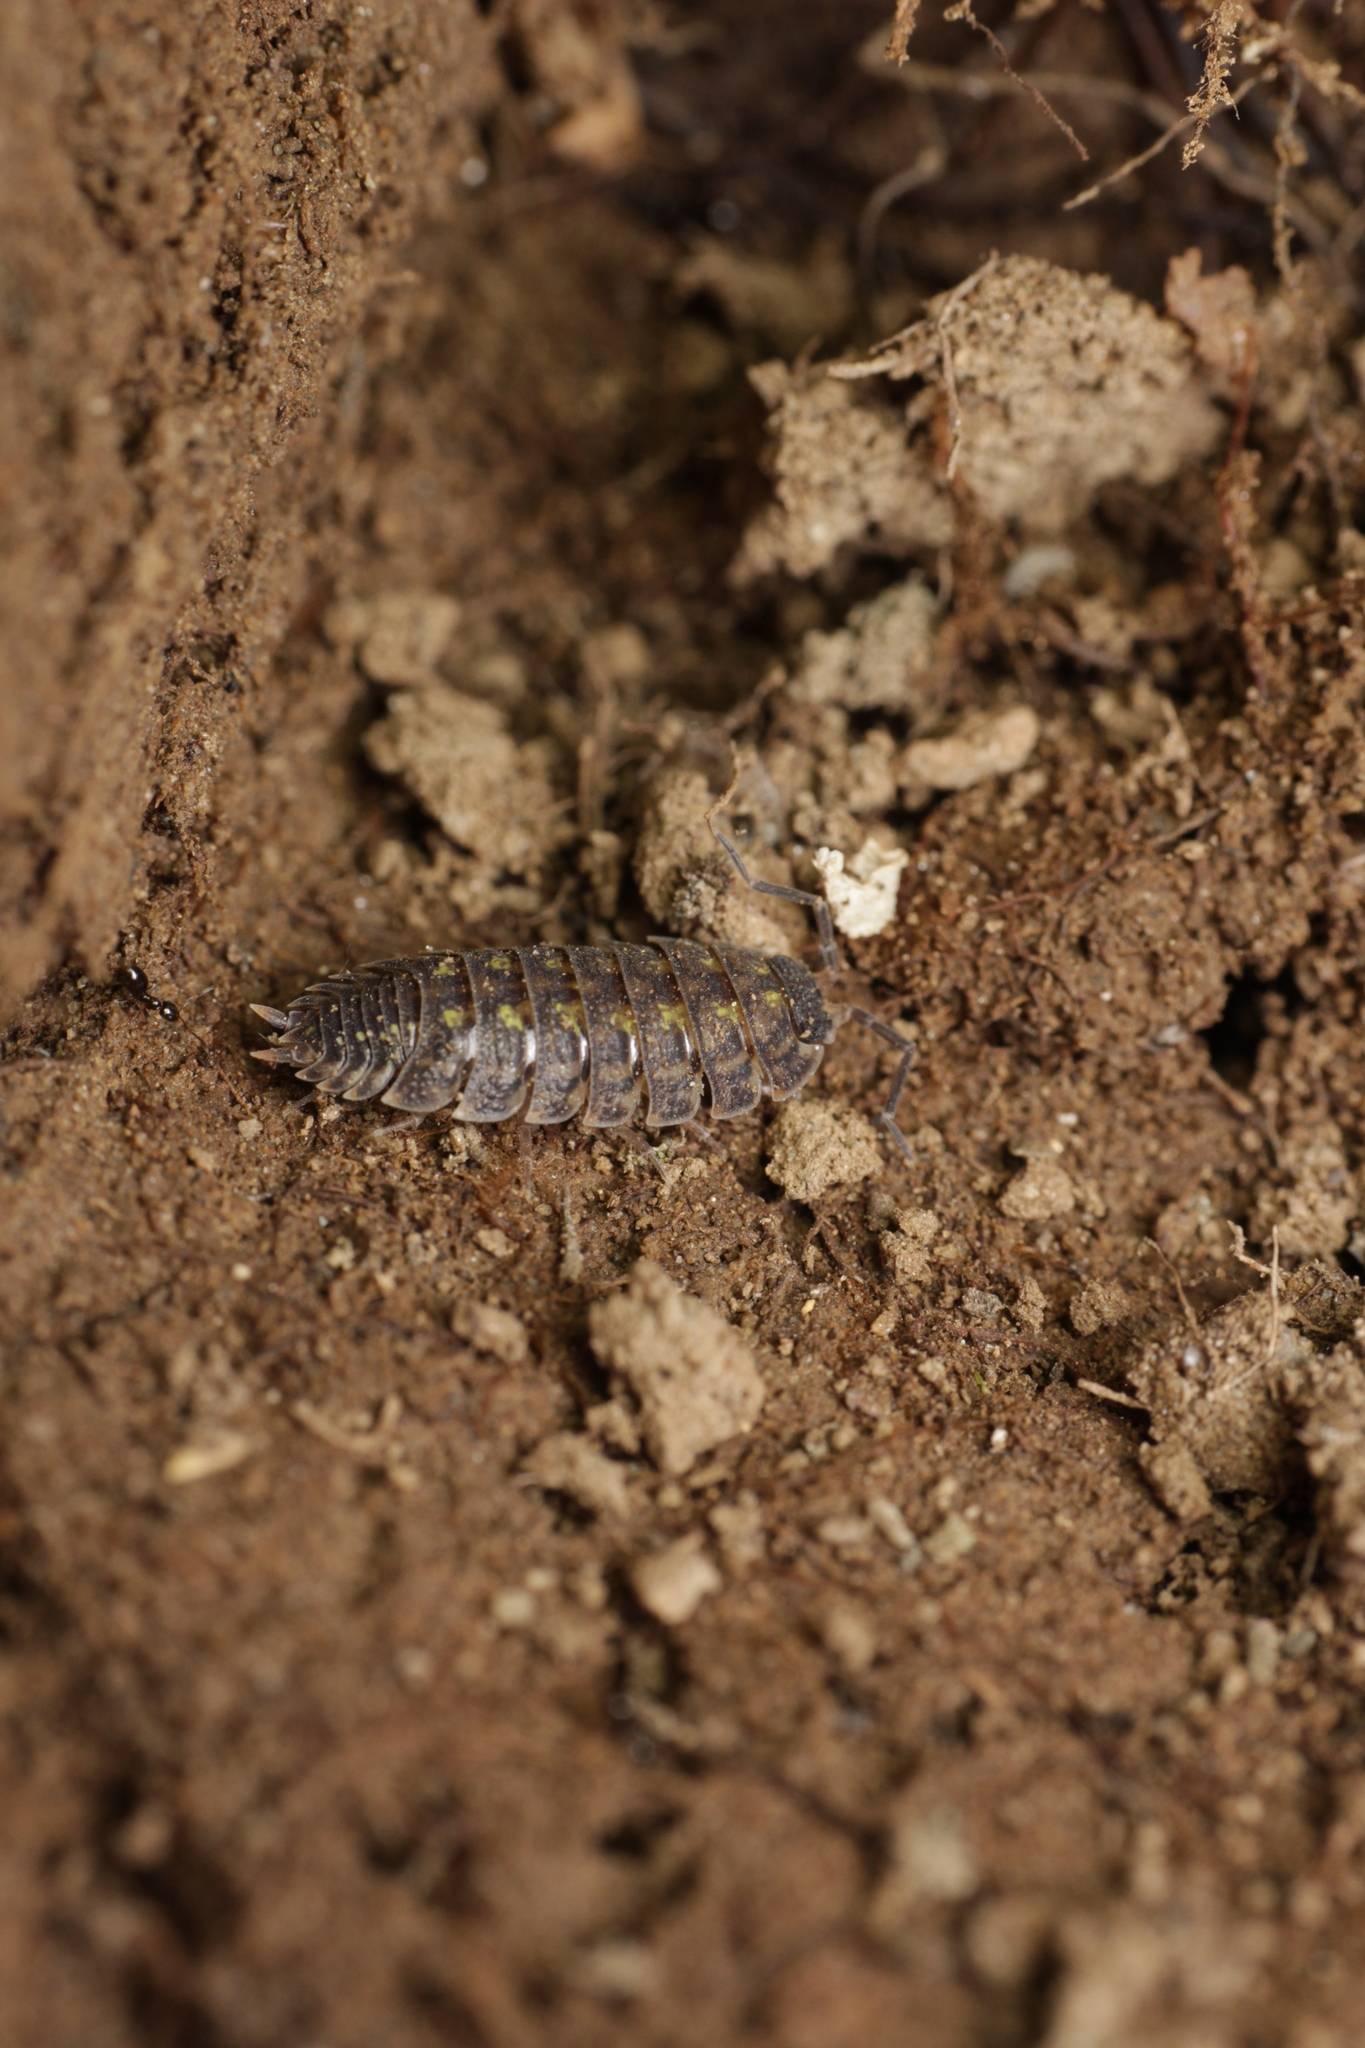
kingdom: Animalia
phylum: Arthropoda
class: Malacostraca
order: Isopoda
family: Porcellionidae
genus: Porcellio
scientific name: Porcellio spinicornis
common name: Painted woodlouse
